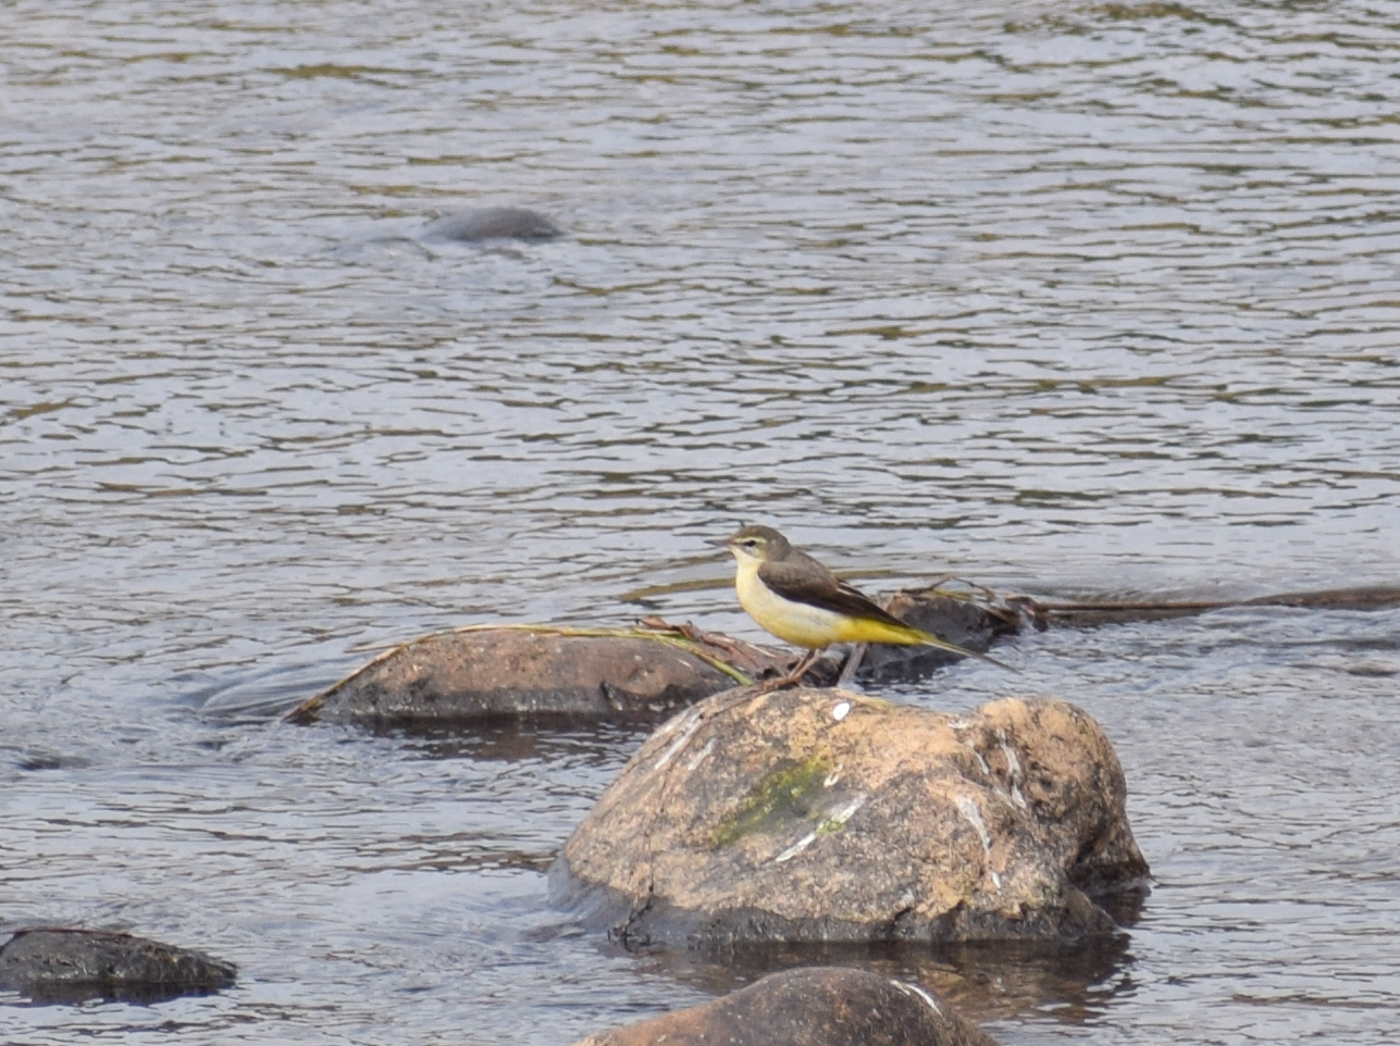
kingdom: Animalia
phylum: Chordata
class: Aves
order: Passeriformes
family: Motacillidae
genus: Motacilla
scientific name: Motacilla cinerea
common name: Grey wagtail
